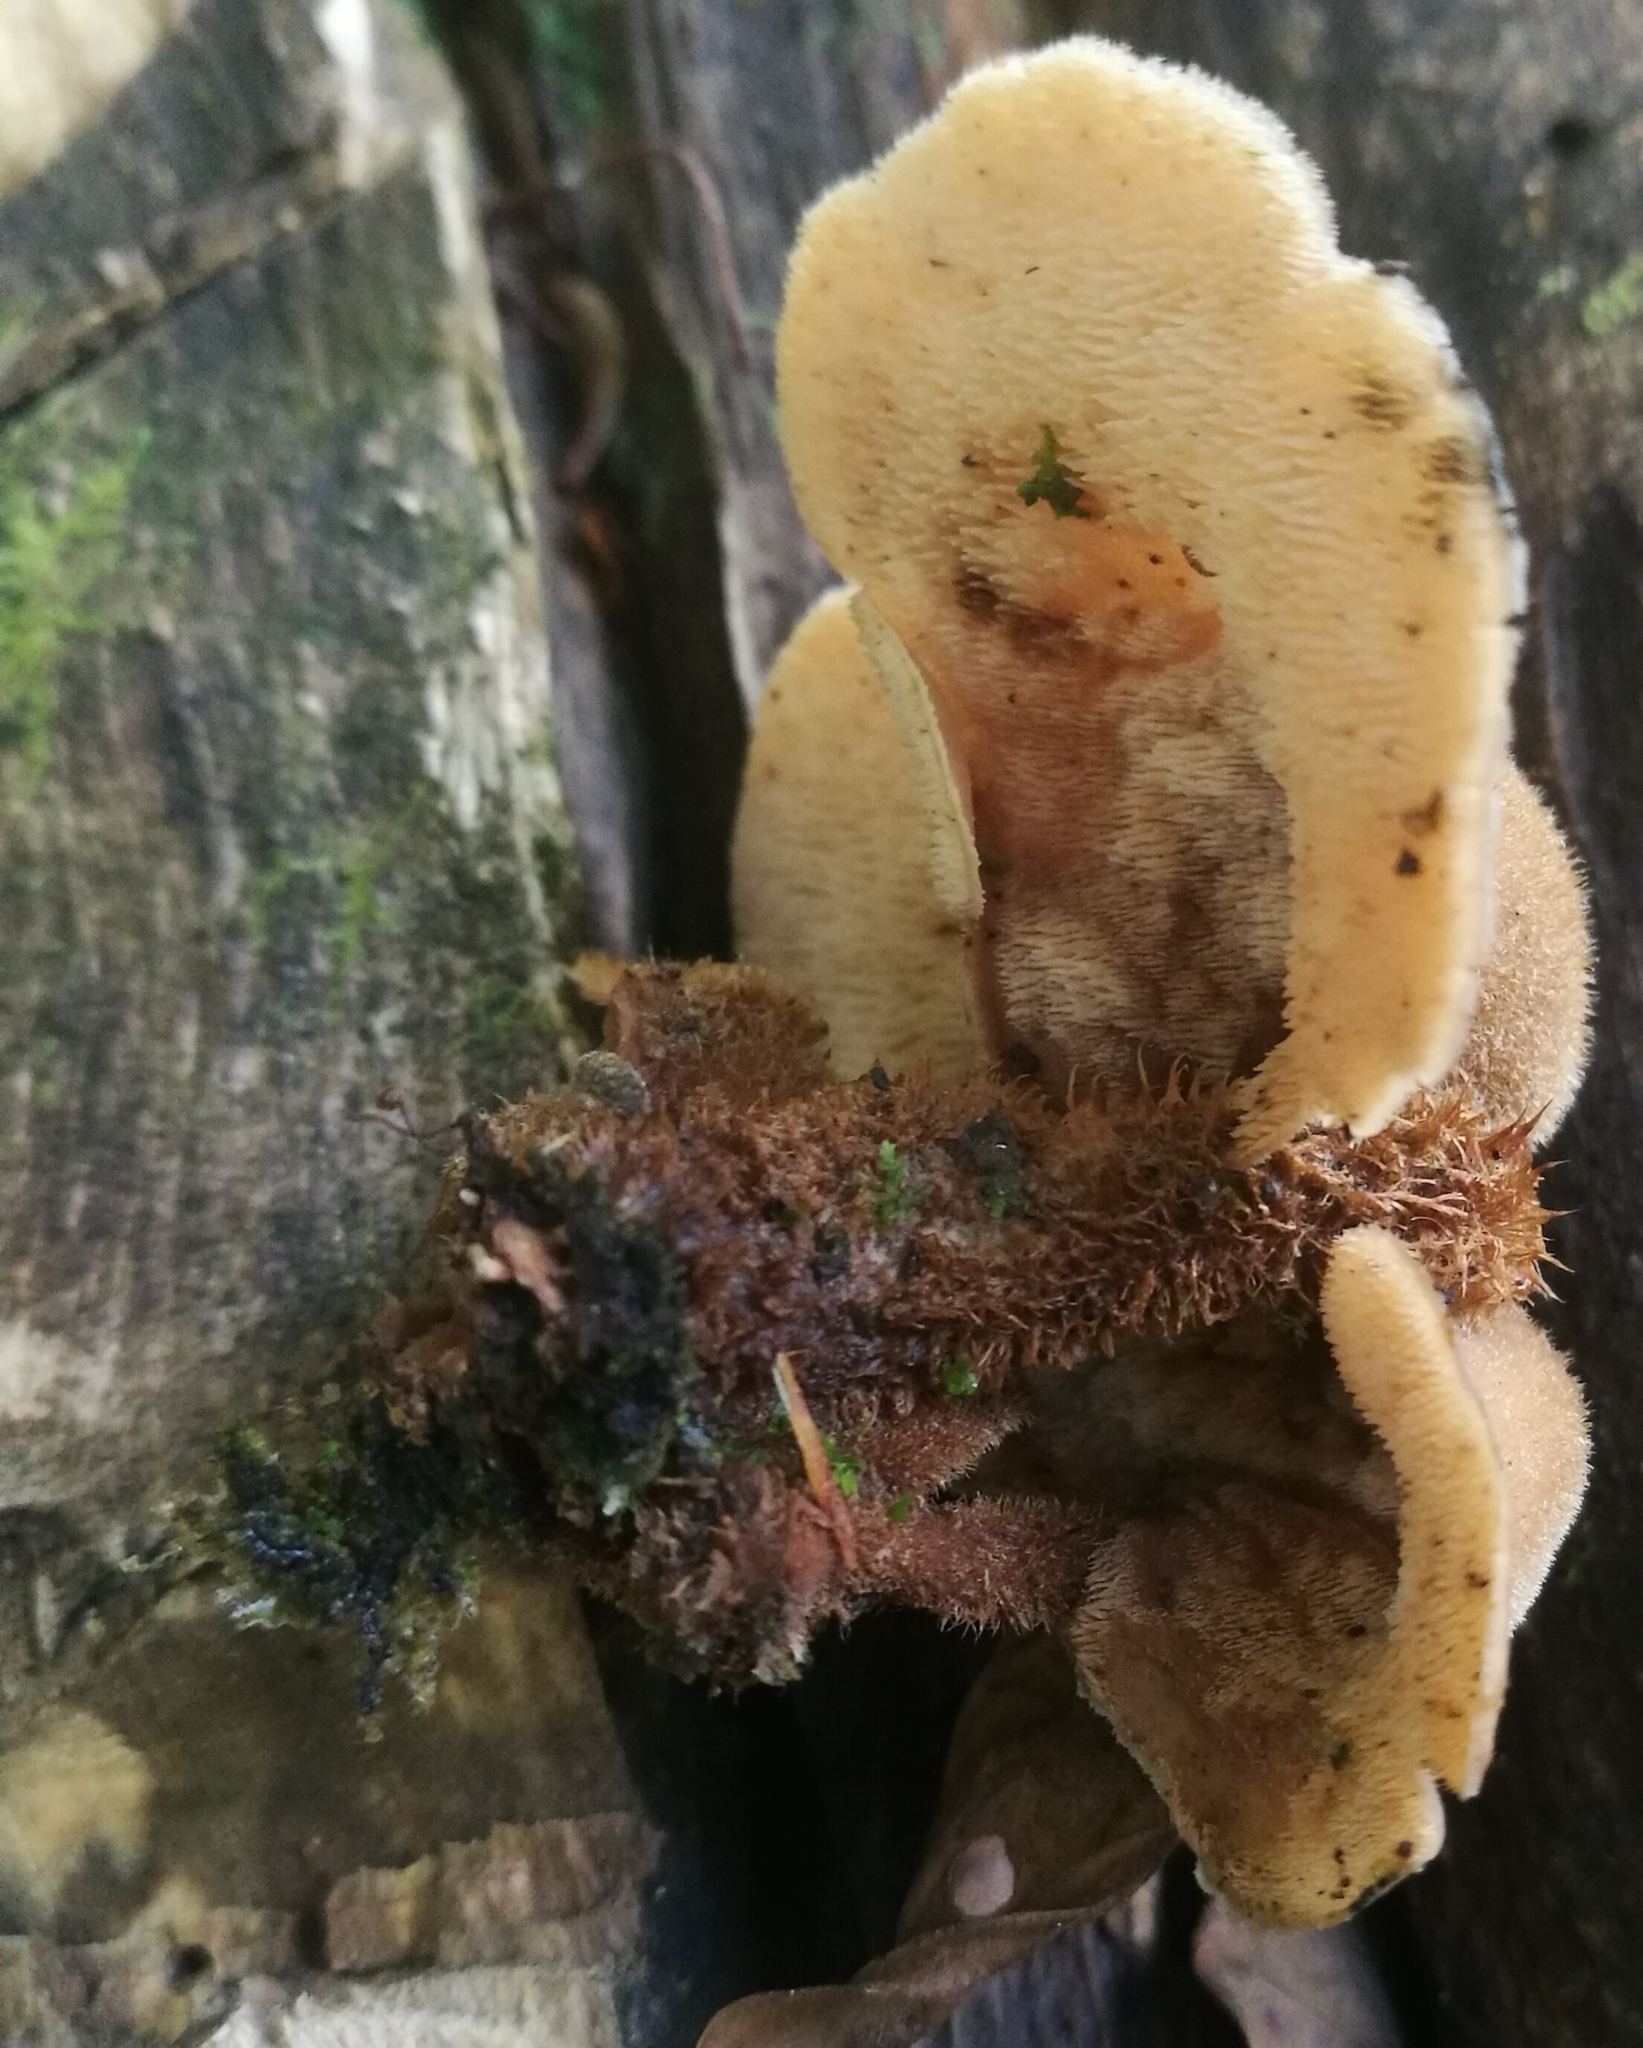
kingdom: Fungi
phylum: Basidiomycota
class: Agaricomycetes
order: Russulales
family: Auriscalpiaceae
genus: Auriscalpium
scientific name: Auriscalpium villipes
